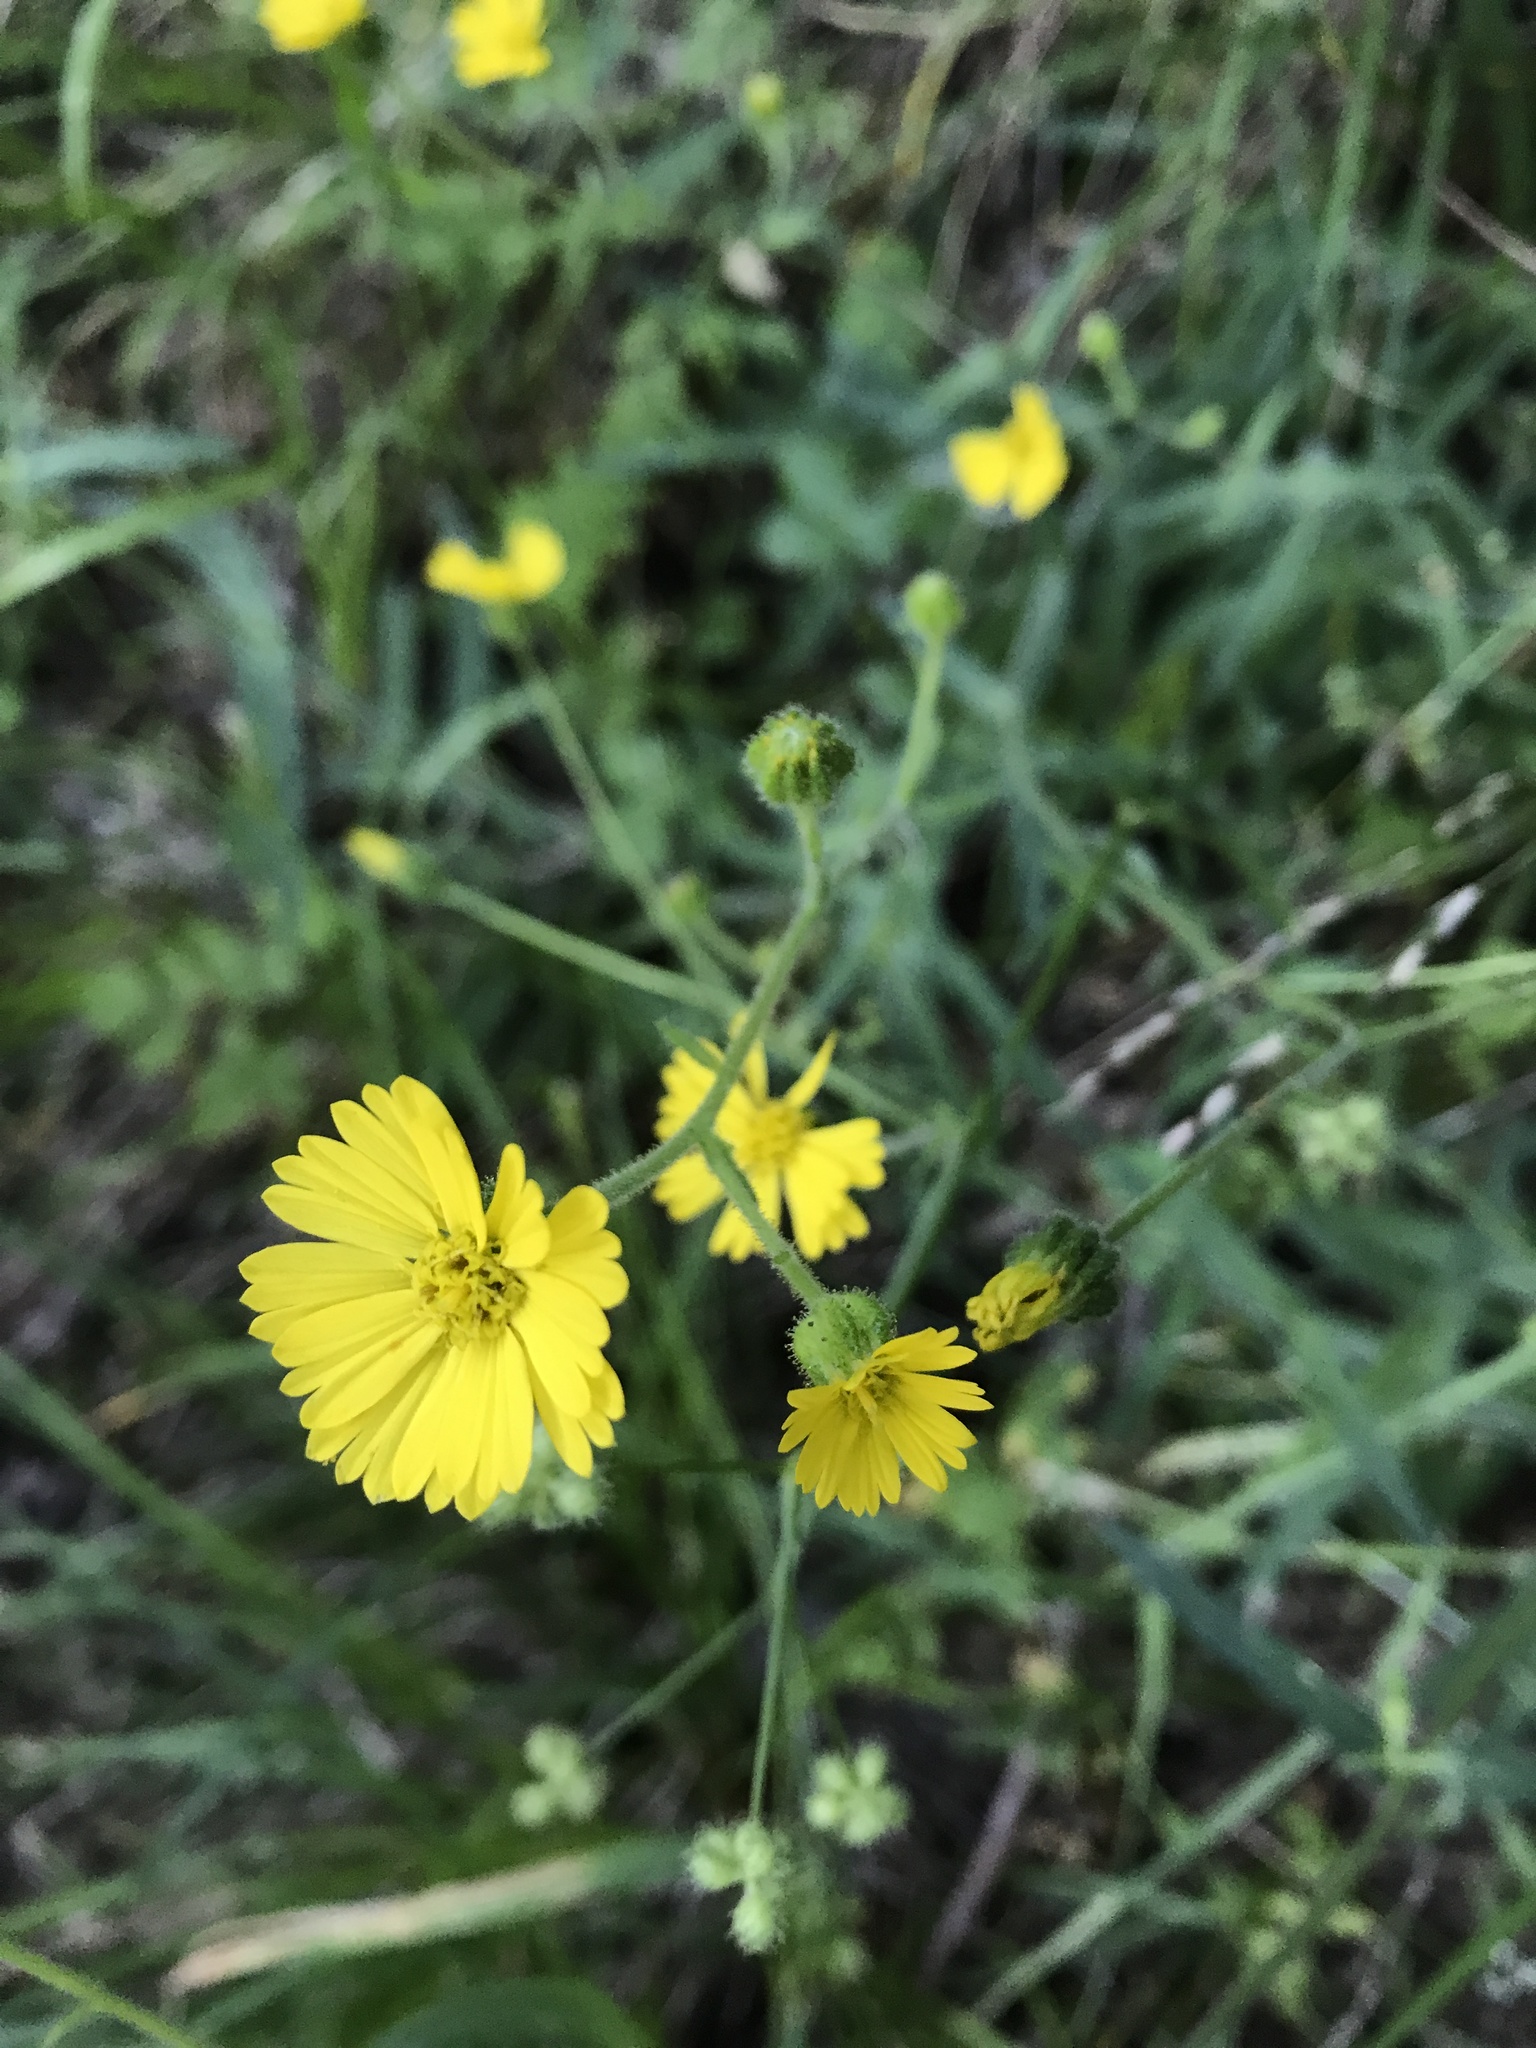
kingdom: Plantae
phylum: Tracheophyta
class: Magnoliopsida
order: Asterales
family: Asteraceae
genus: Anisocarpus
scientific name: Anisocarpus madioides
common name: Woodland madia
